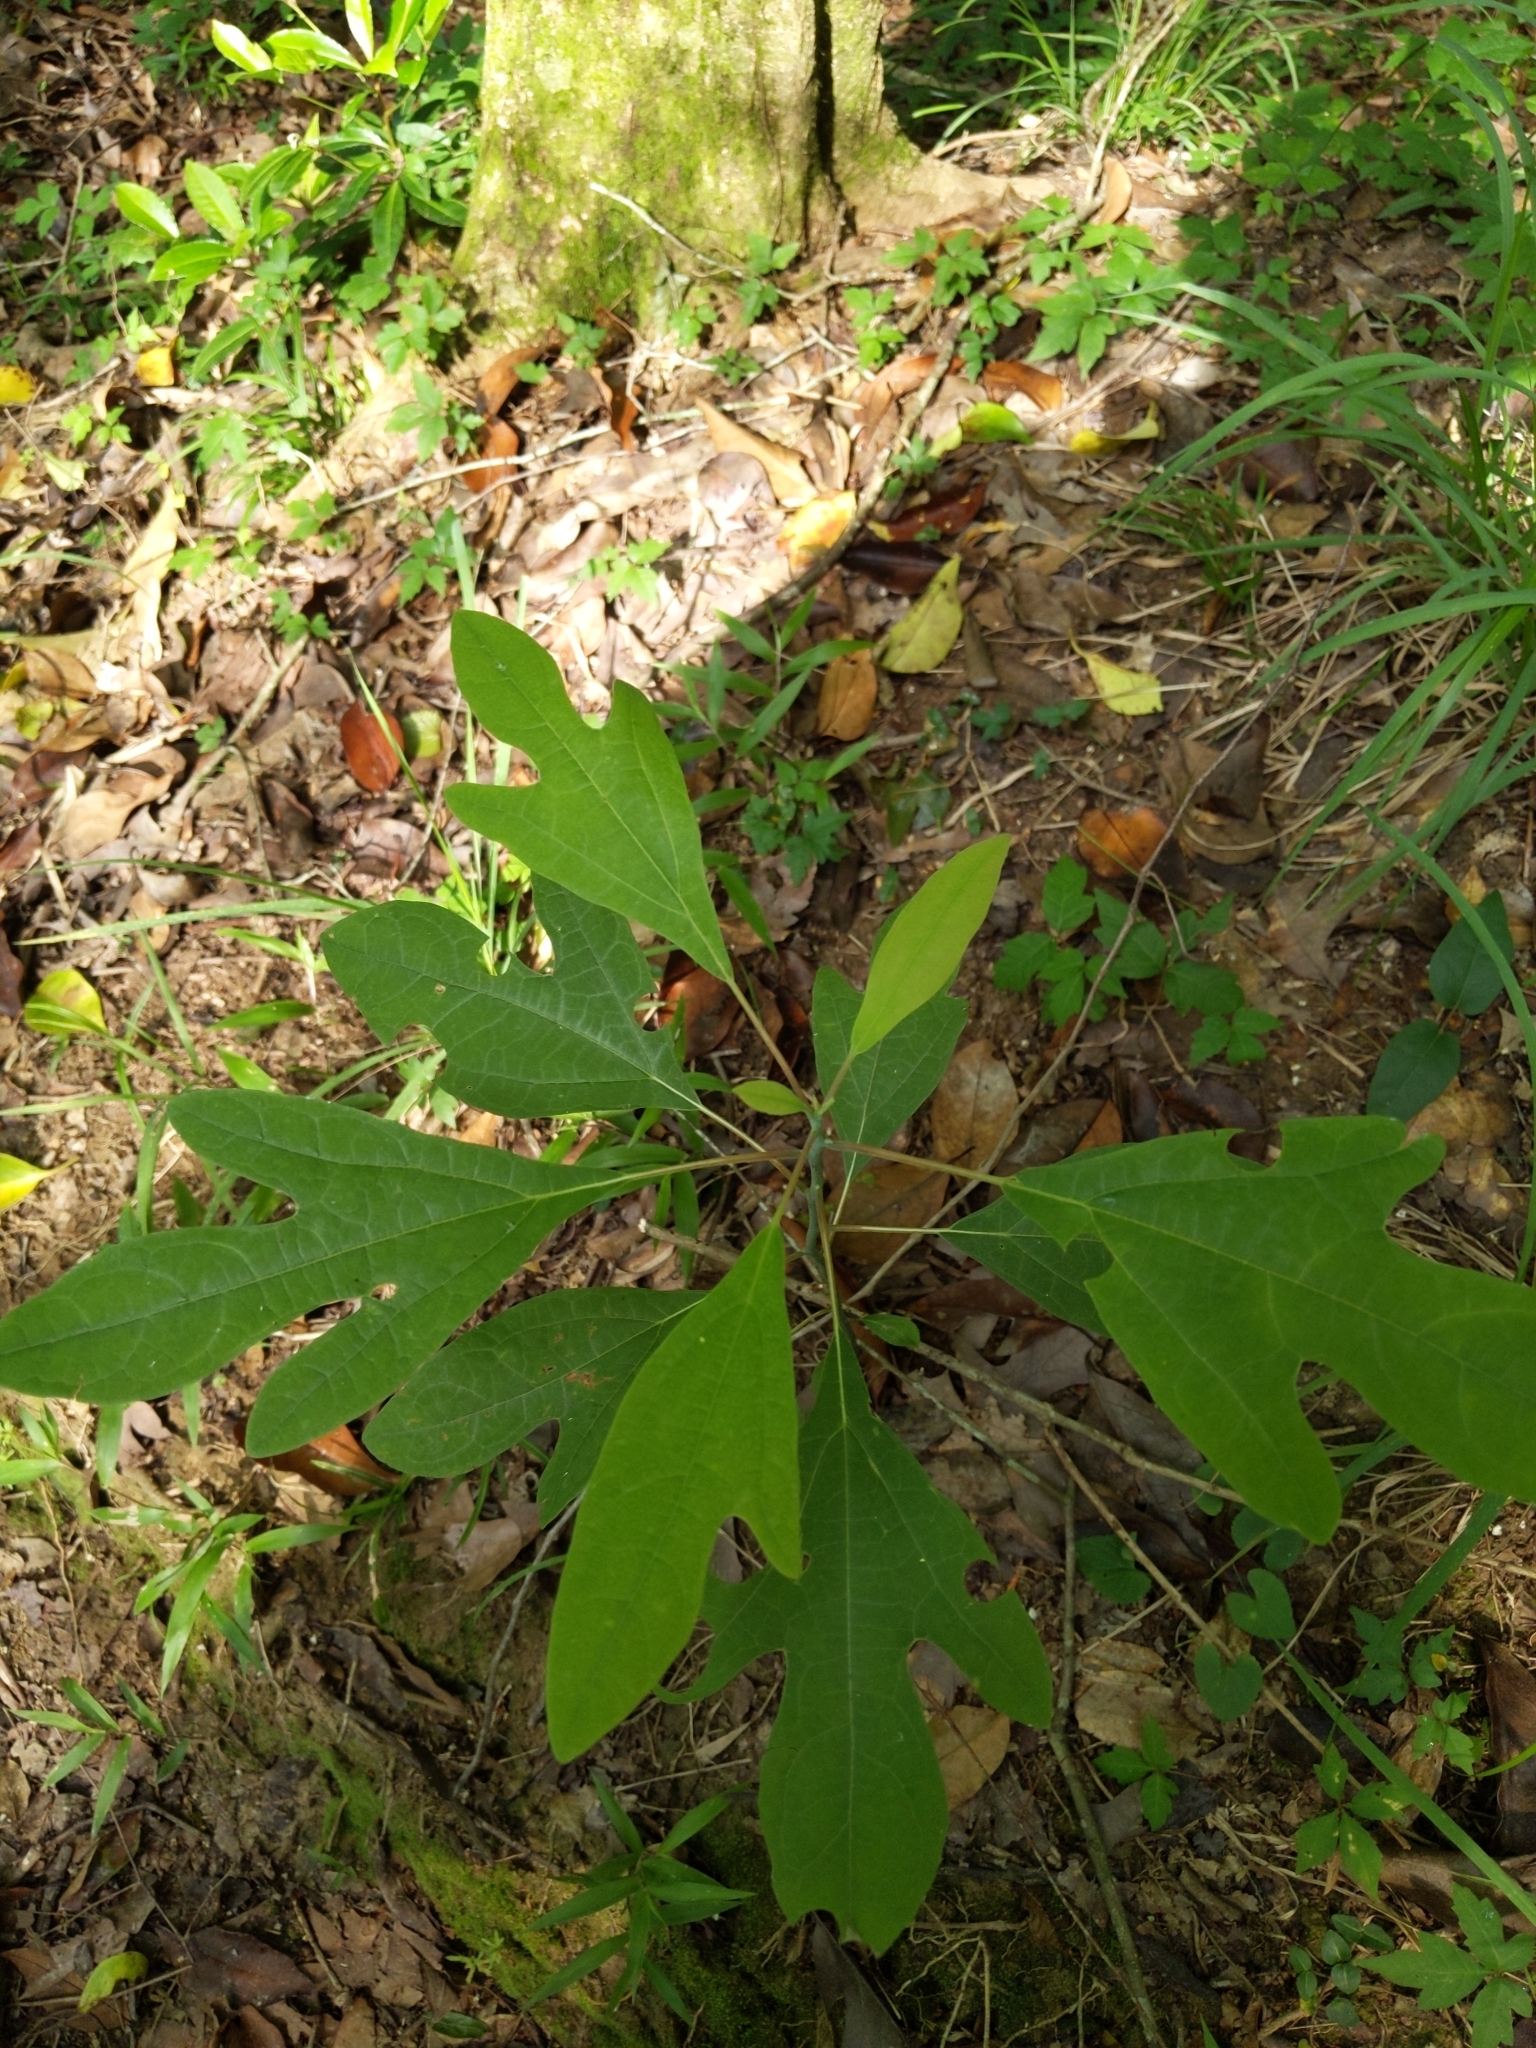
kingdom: Plantae
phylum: Tracheophyta
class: Magnoliopsida
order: Laurales
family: Lauraceae
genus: Sassafras
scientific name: Sassafras albidum
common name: Sassafras
